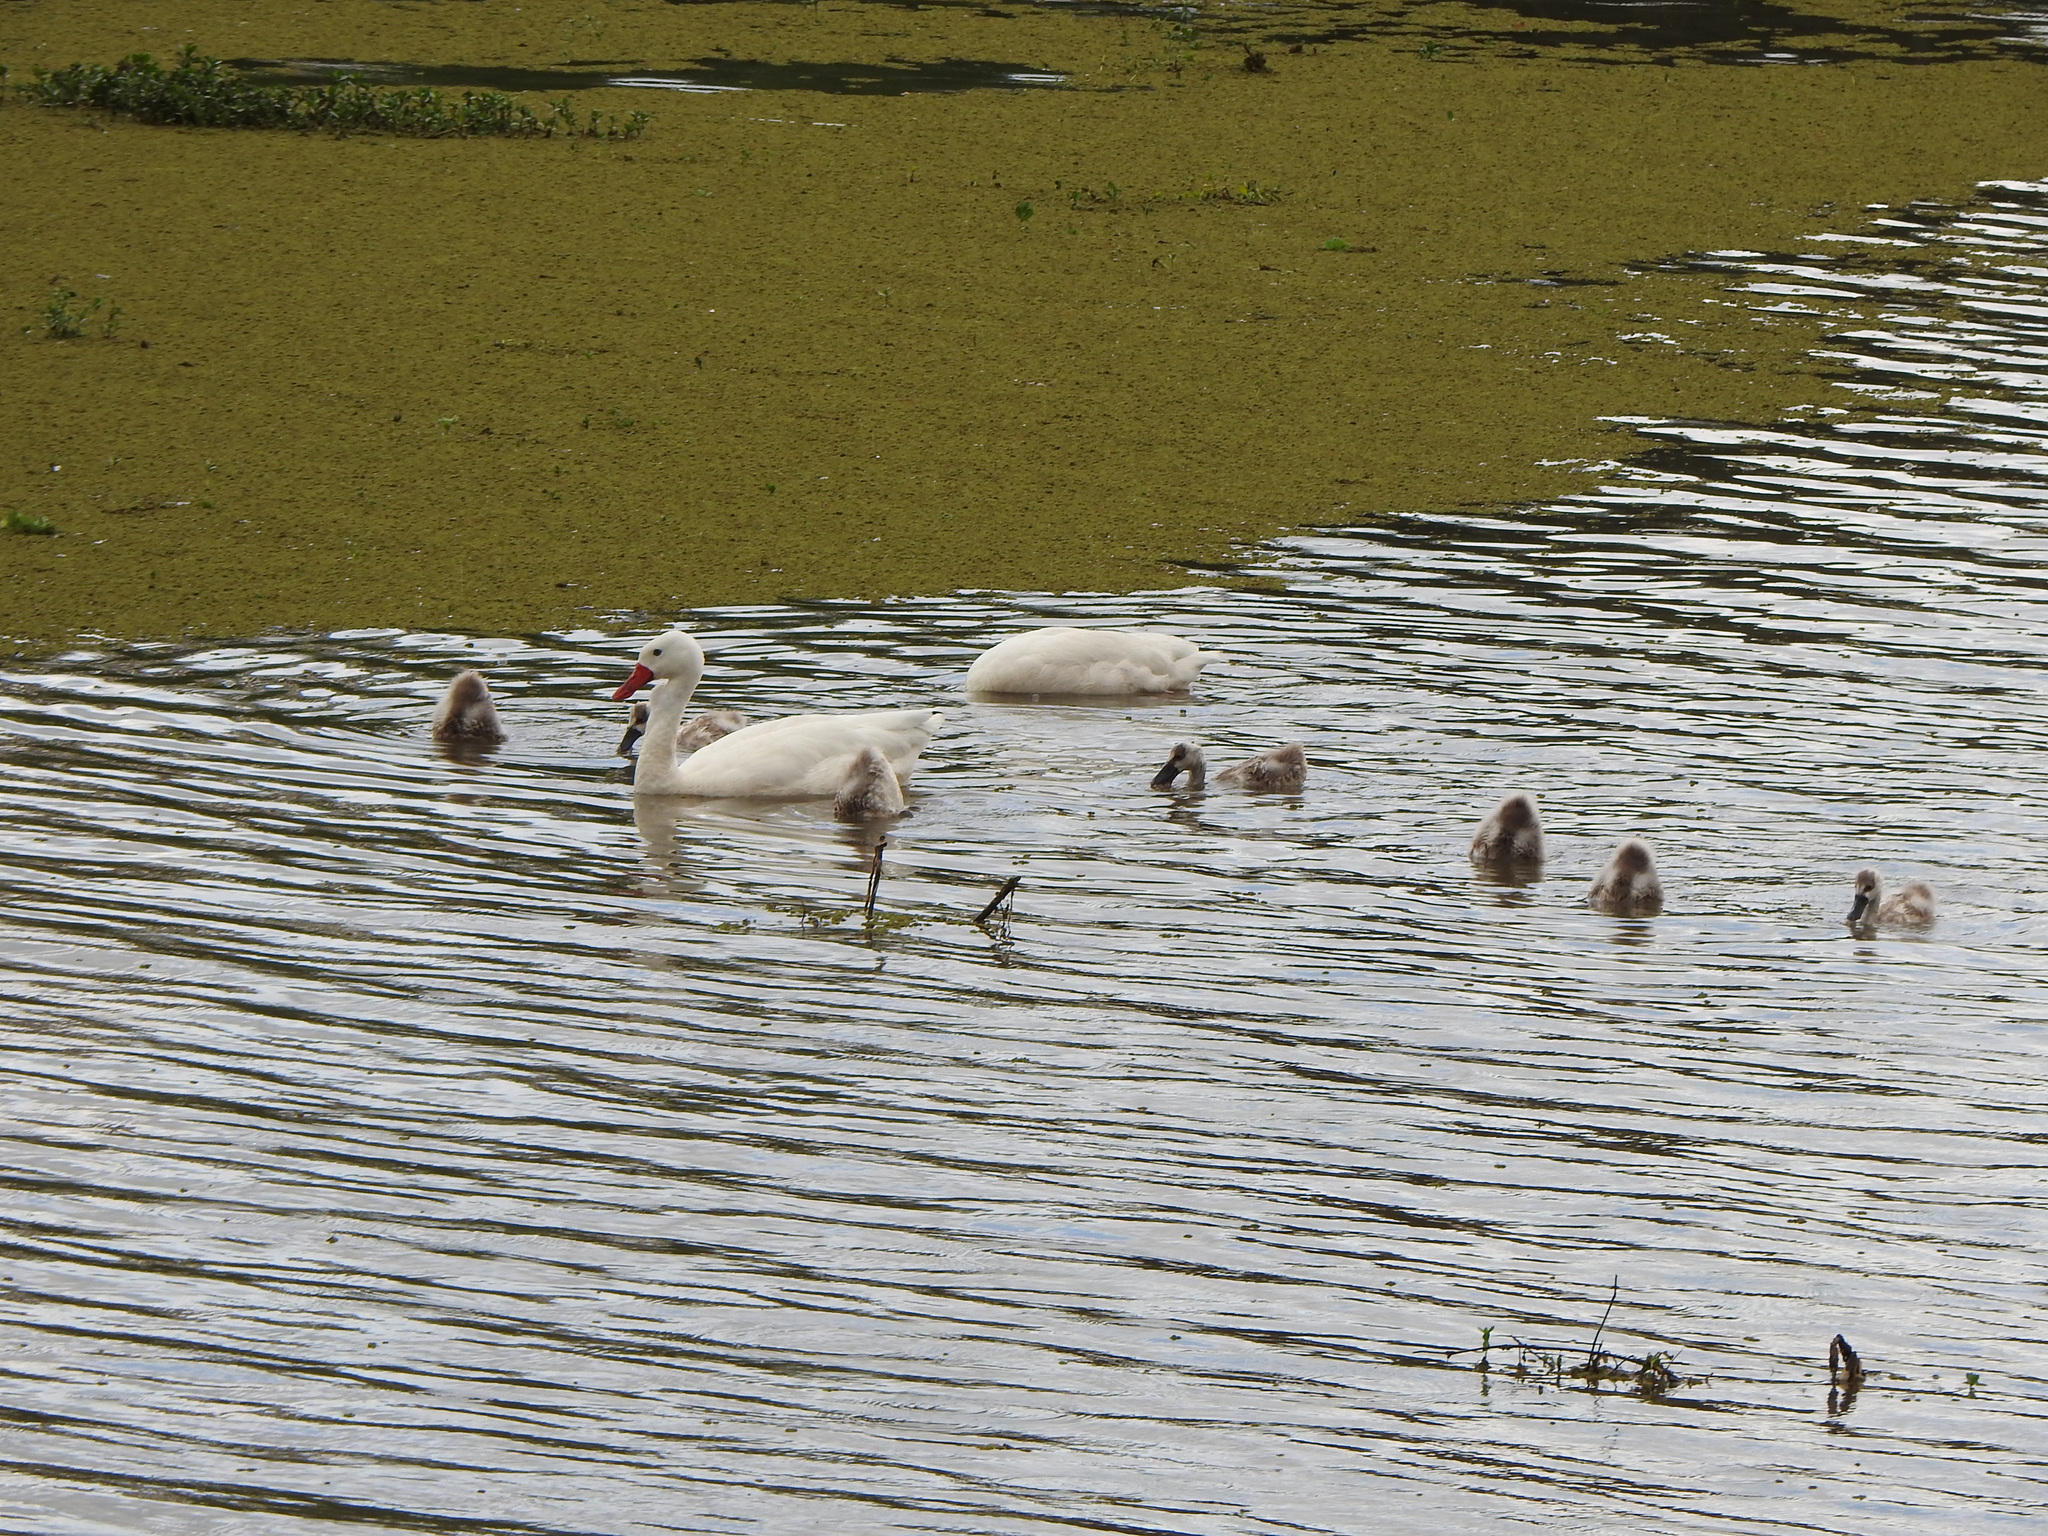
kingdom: Animalia
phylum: Chordata
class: Aves
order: Anseriformes
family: Anatidae
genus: Coscoroba
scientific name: Coscoroba coscoroba
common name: Coscoroba swan
